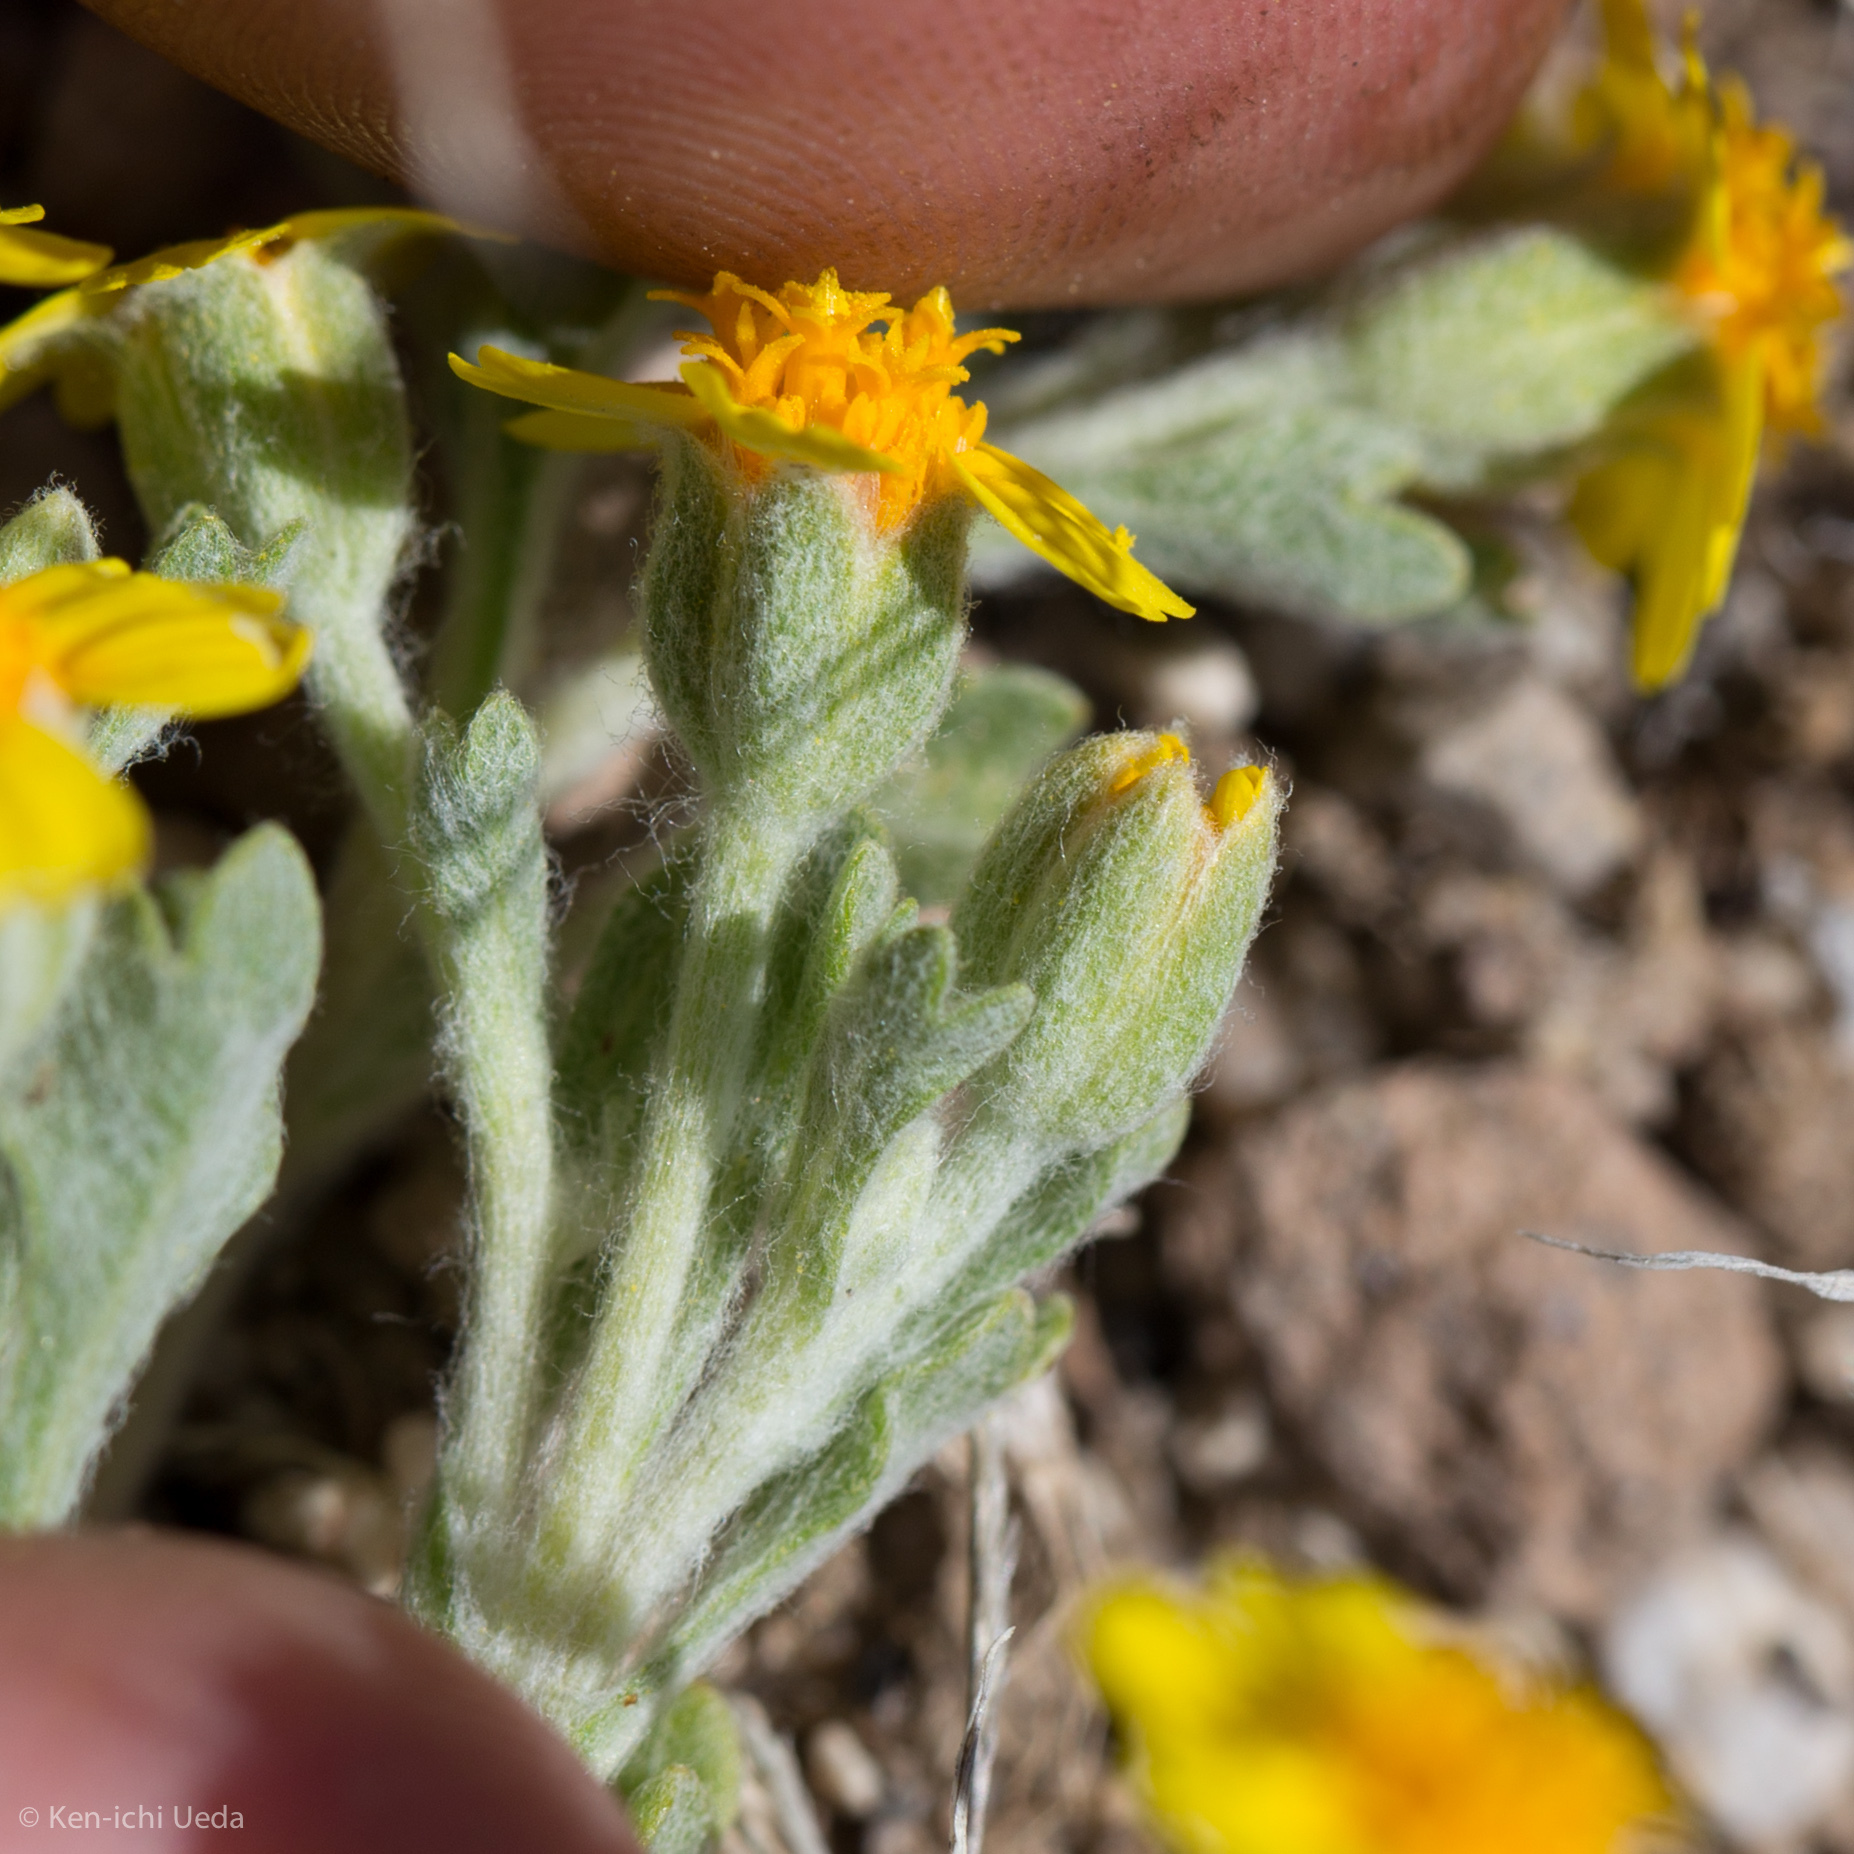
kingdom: Plantae
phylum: Tracheophyta
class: Magnoliopsida
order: Asterales
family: Asteraceae
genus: Syntrichopappus
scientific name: Syntrichopappus fremontii
